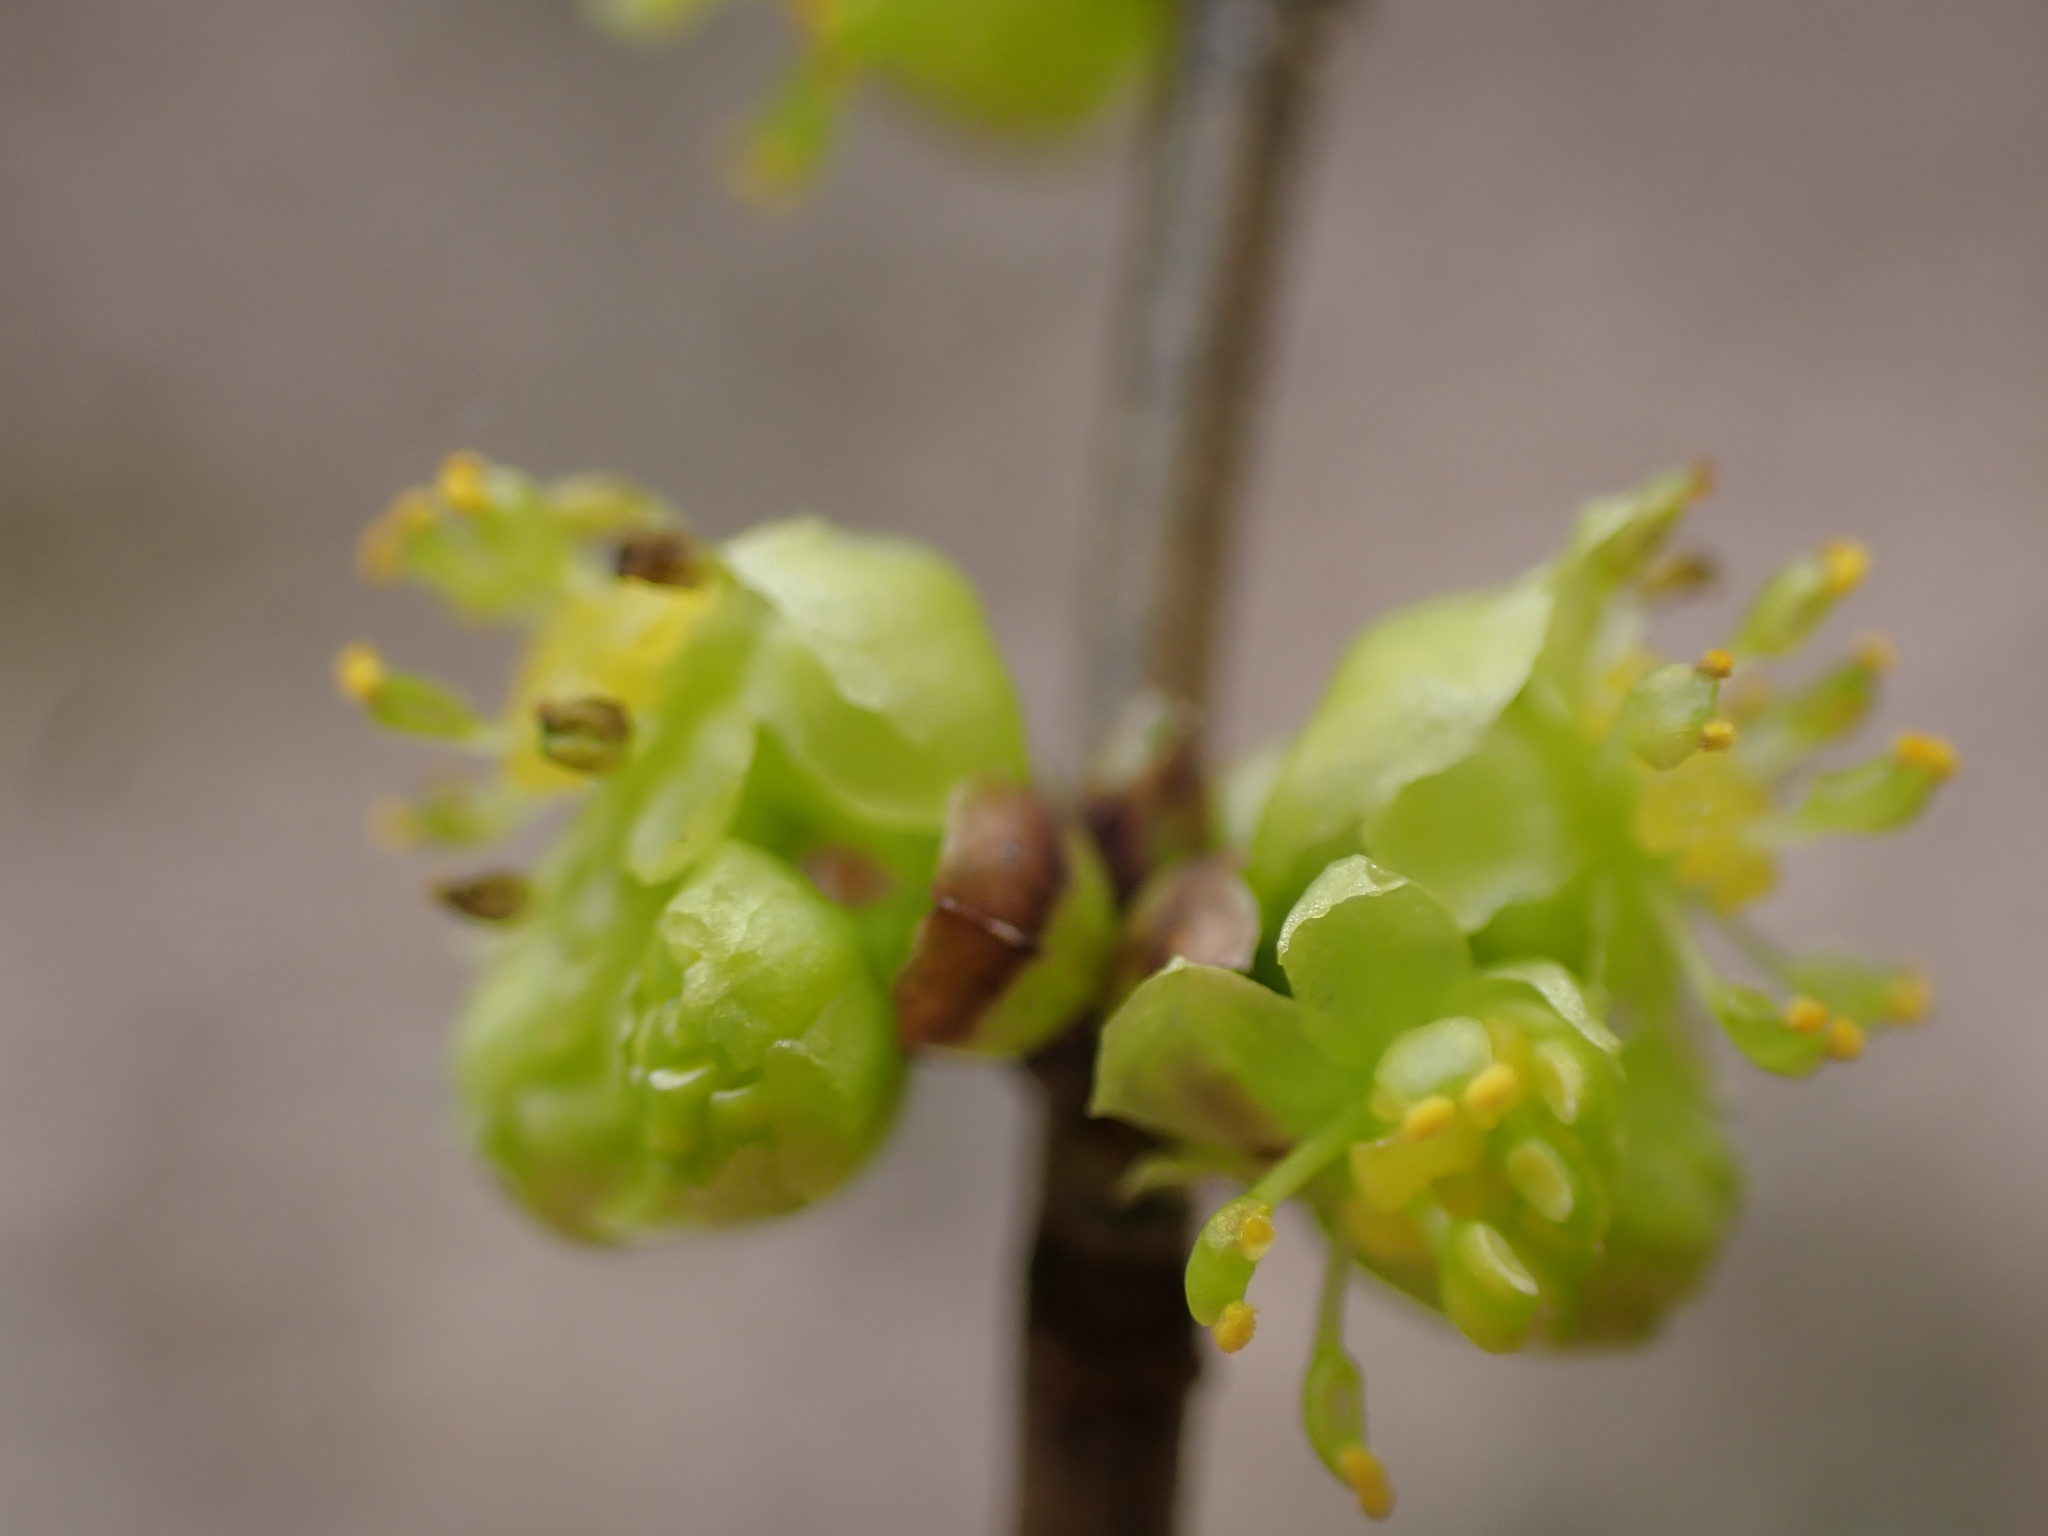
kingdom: Plantae
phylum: Tracheophyta
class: Magnoliopsida
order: Laurales
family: Lauraceae
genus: Lindera
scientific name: Lindera benzoin
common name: Spicebush
